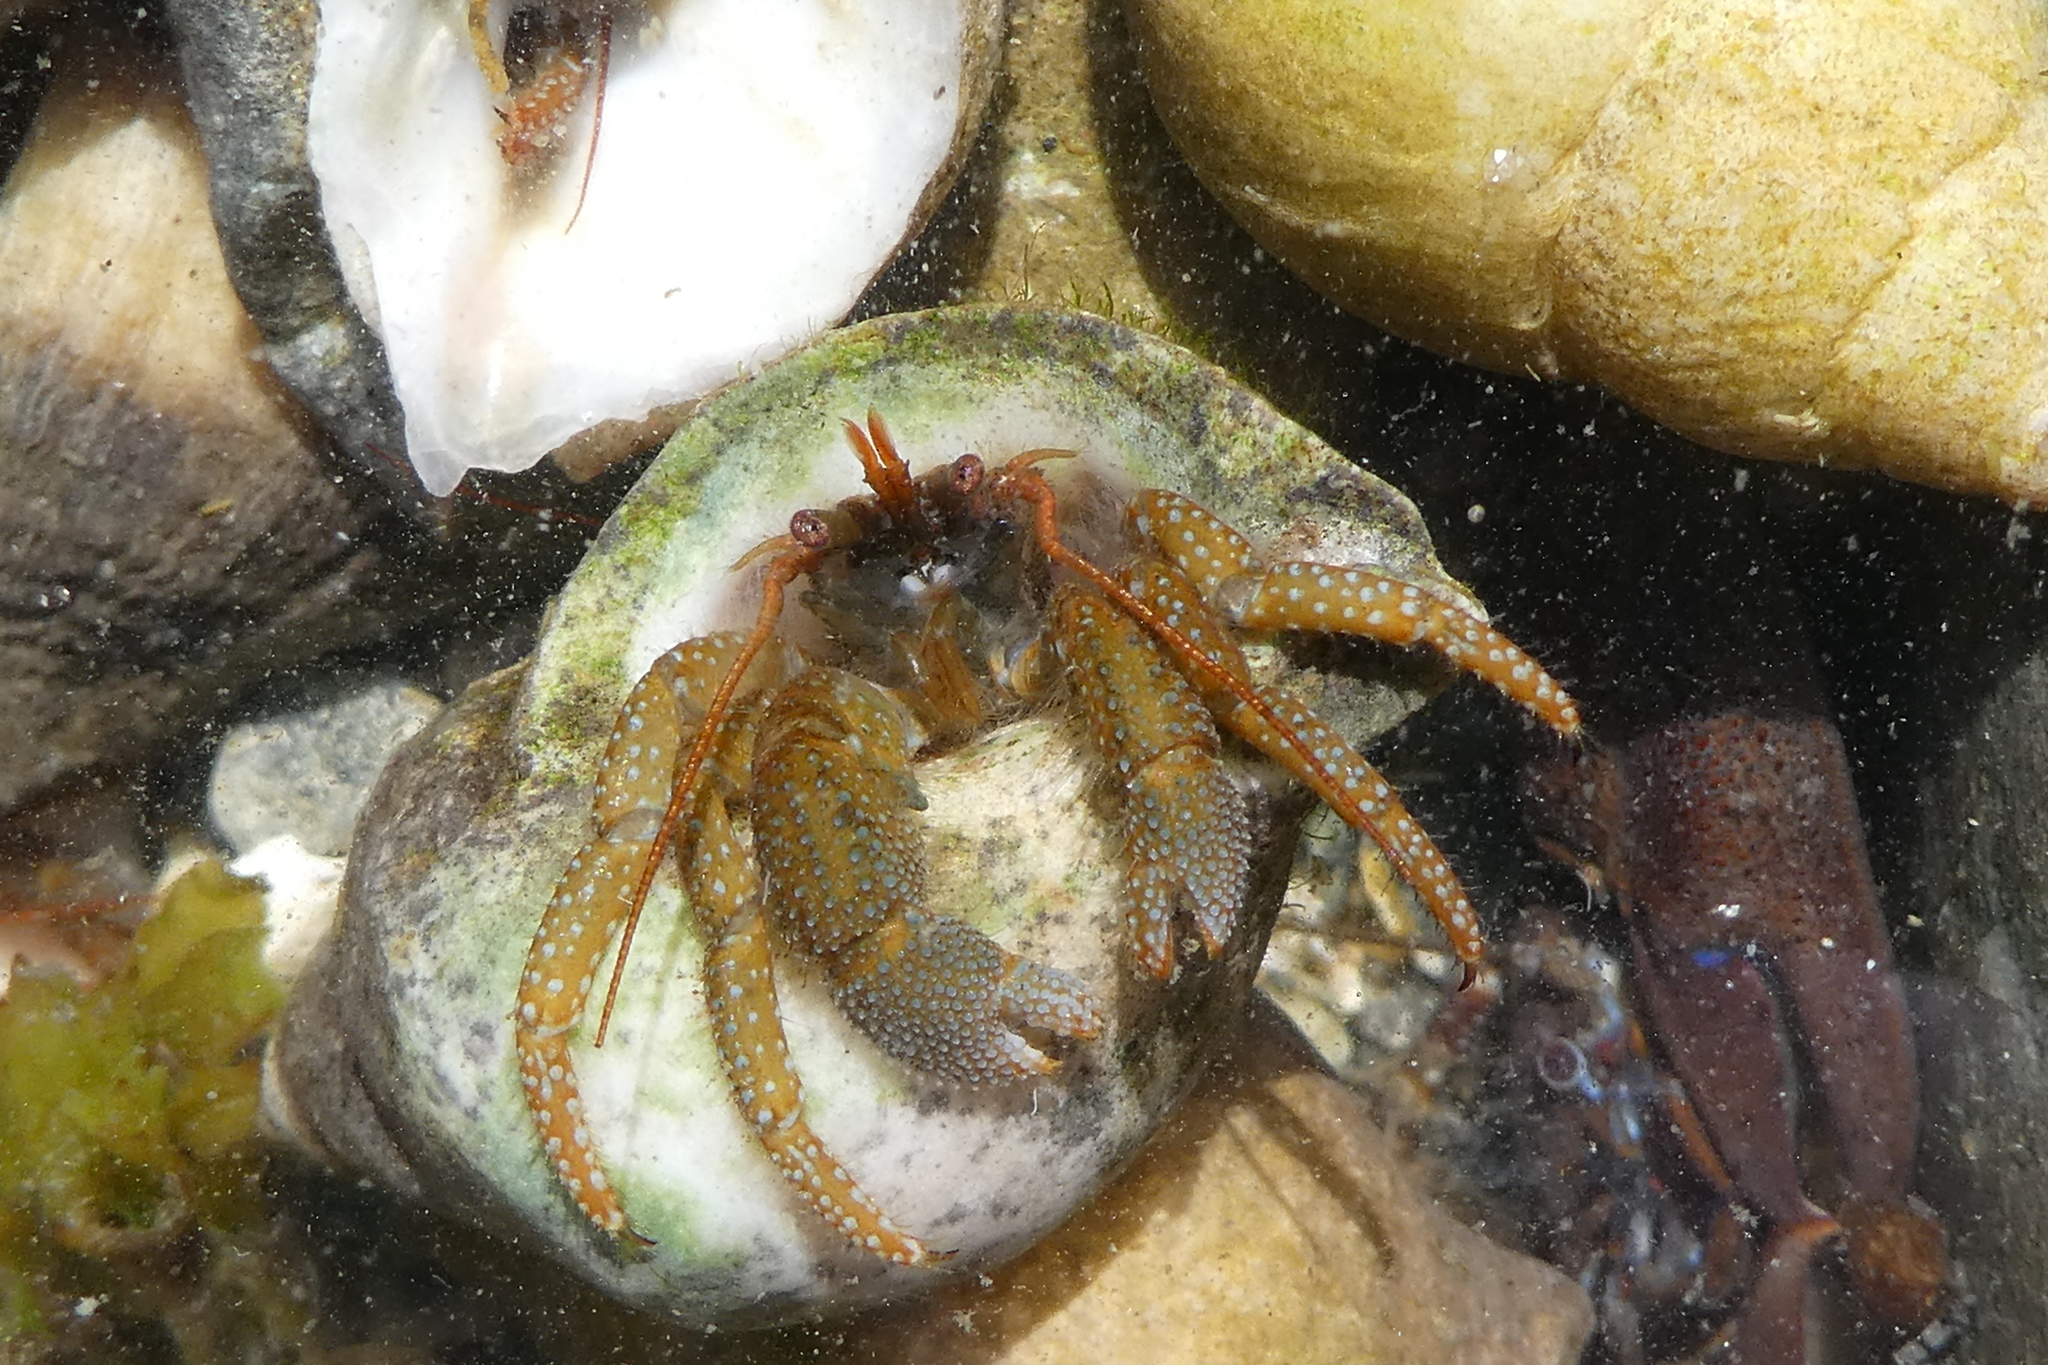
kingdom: Animalia
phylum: Arthropoda
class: Malacostraca
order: Decapoda
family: Paguridae
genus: Pagurus
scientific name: Pagurus granosimanus
